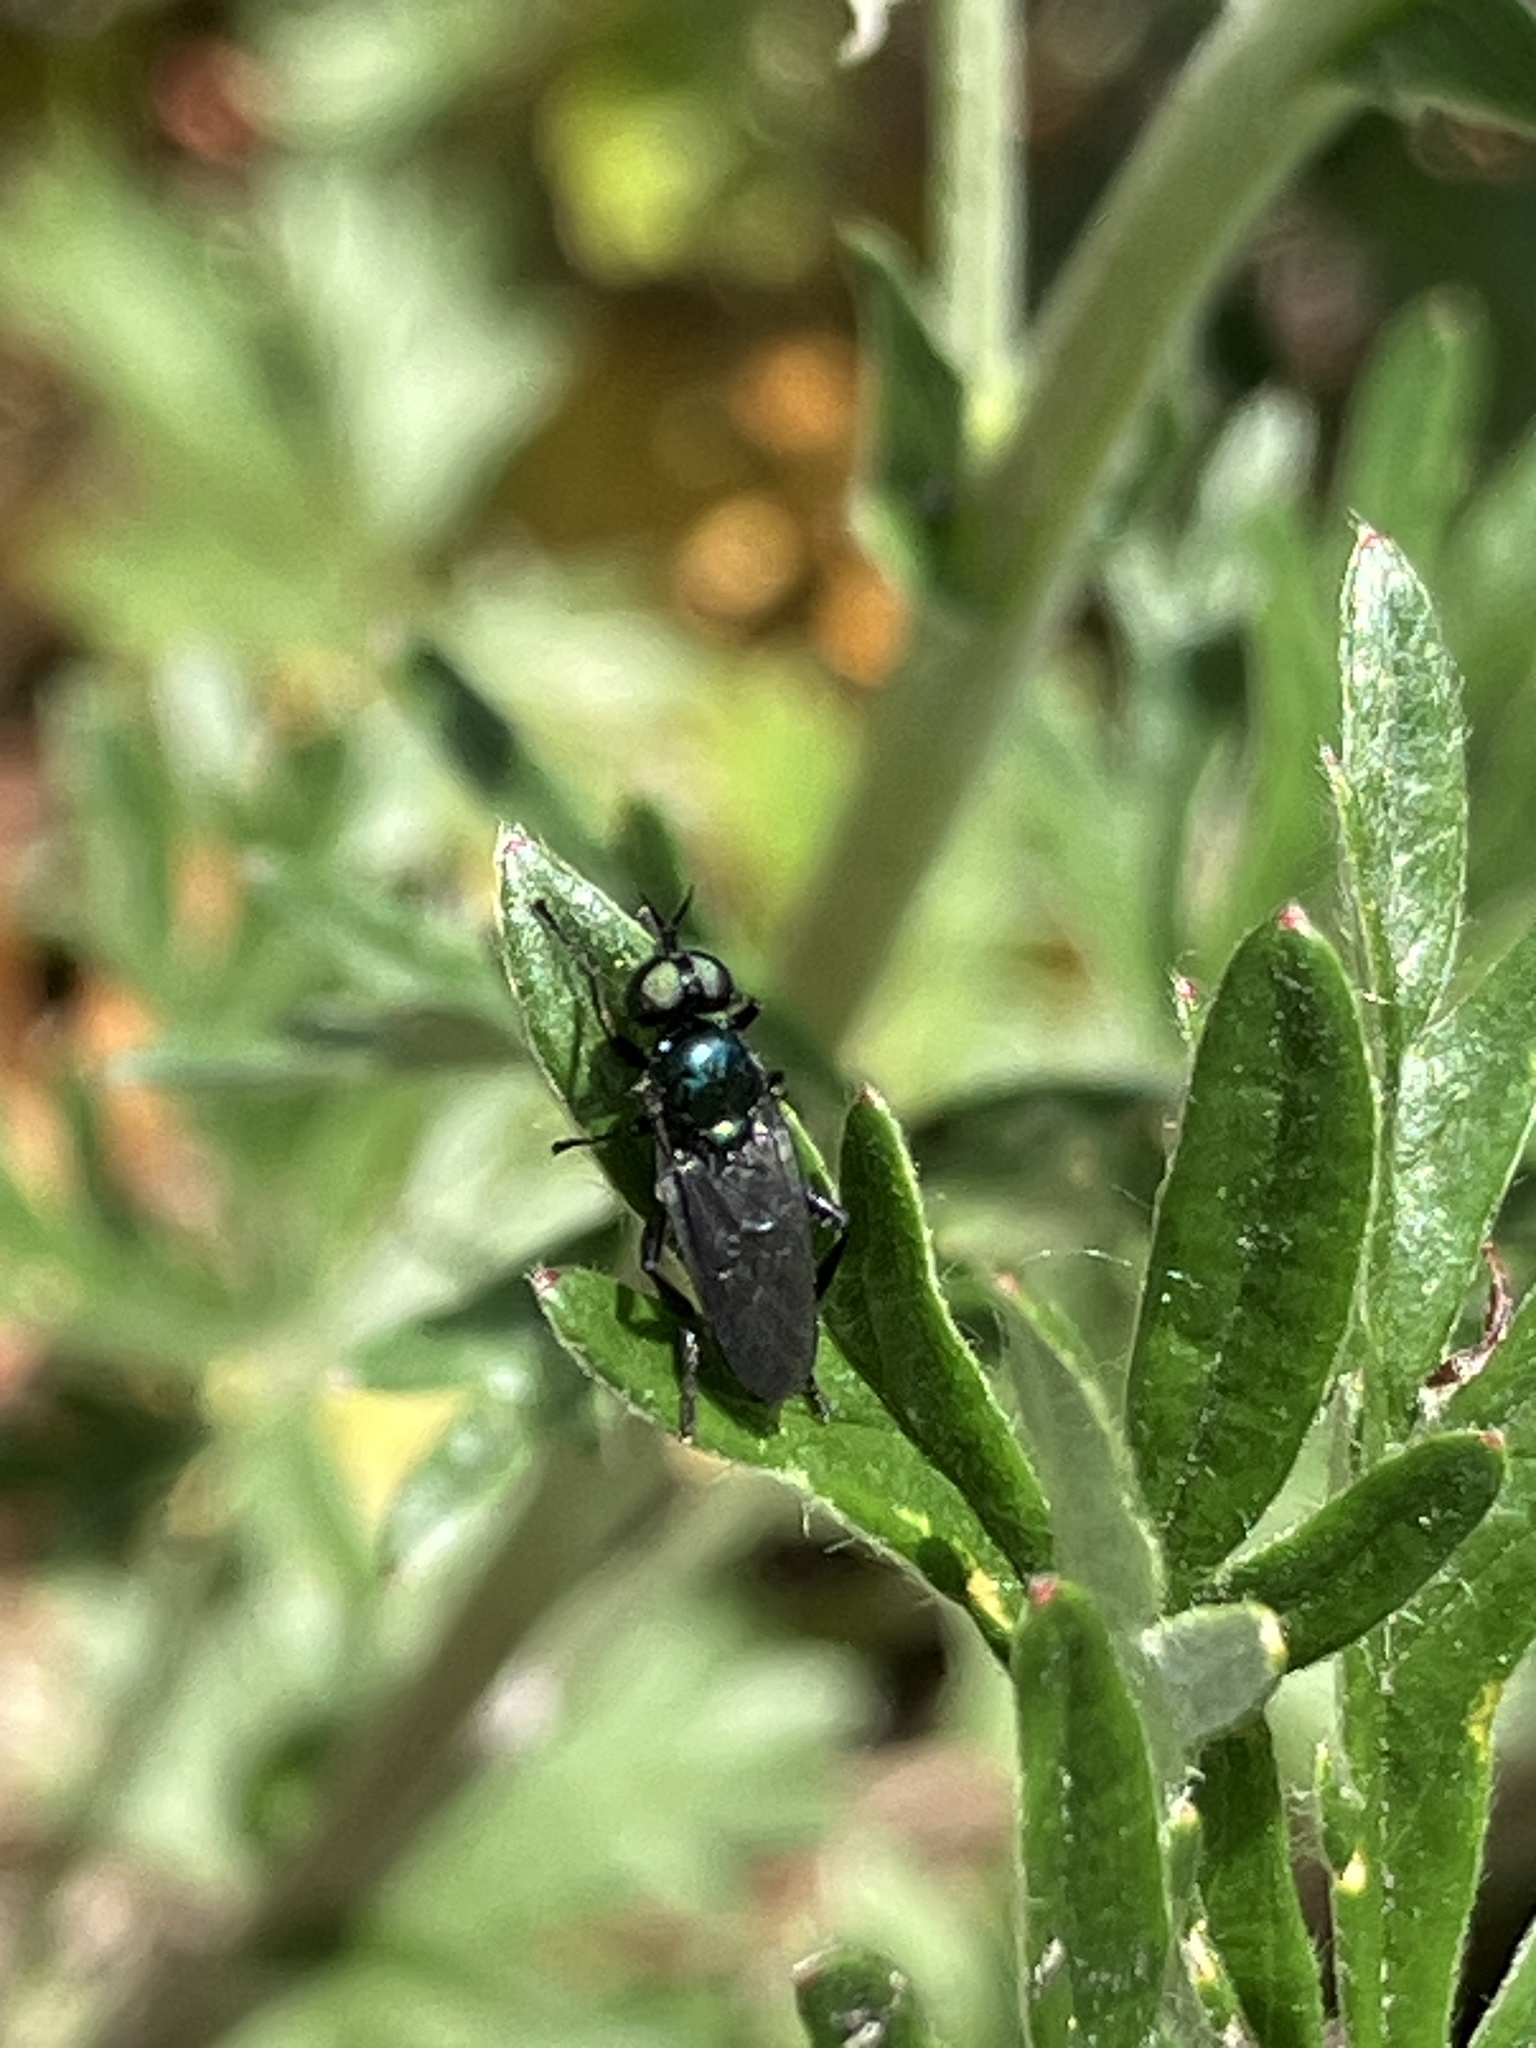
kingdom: Animalia
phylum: Arthropoda
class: Insecta
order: Diptera
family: Stratiomyidae
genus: Actina
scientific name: Actina chalybea
